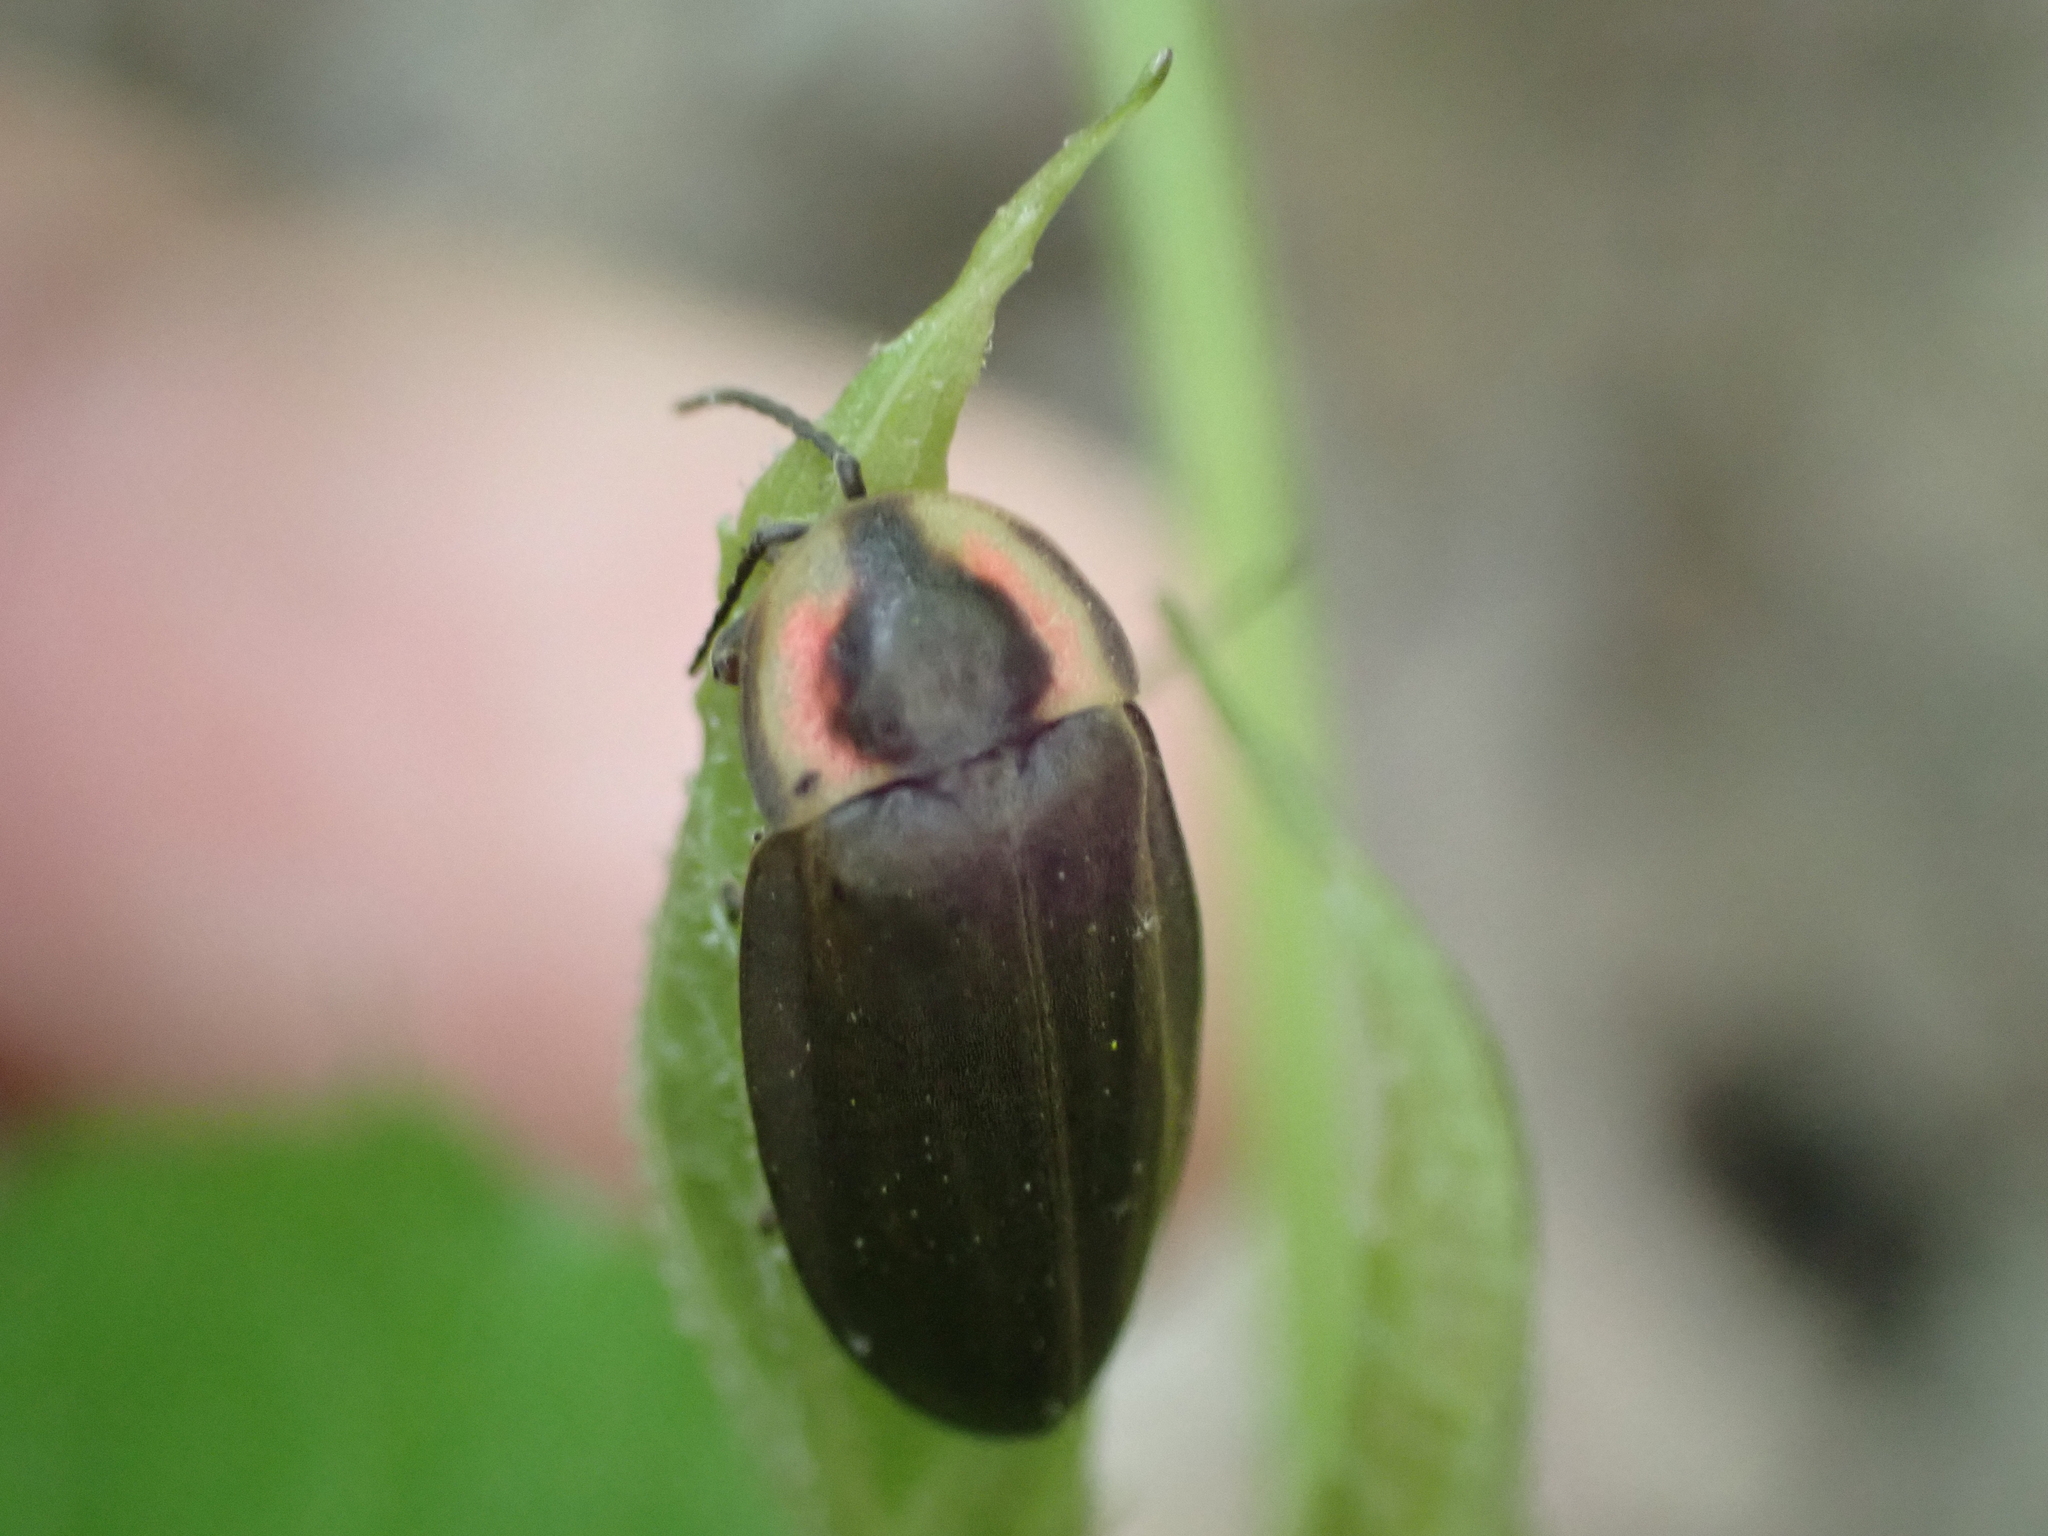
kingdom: Animalia
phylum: Arthropoda
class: Insecta
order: Coleoptera
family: Lampyridae
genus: Photinus
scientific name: Photinus corrusca
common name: Winter firefly
